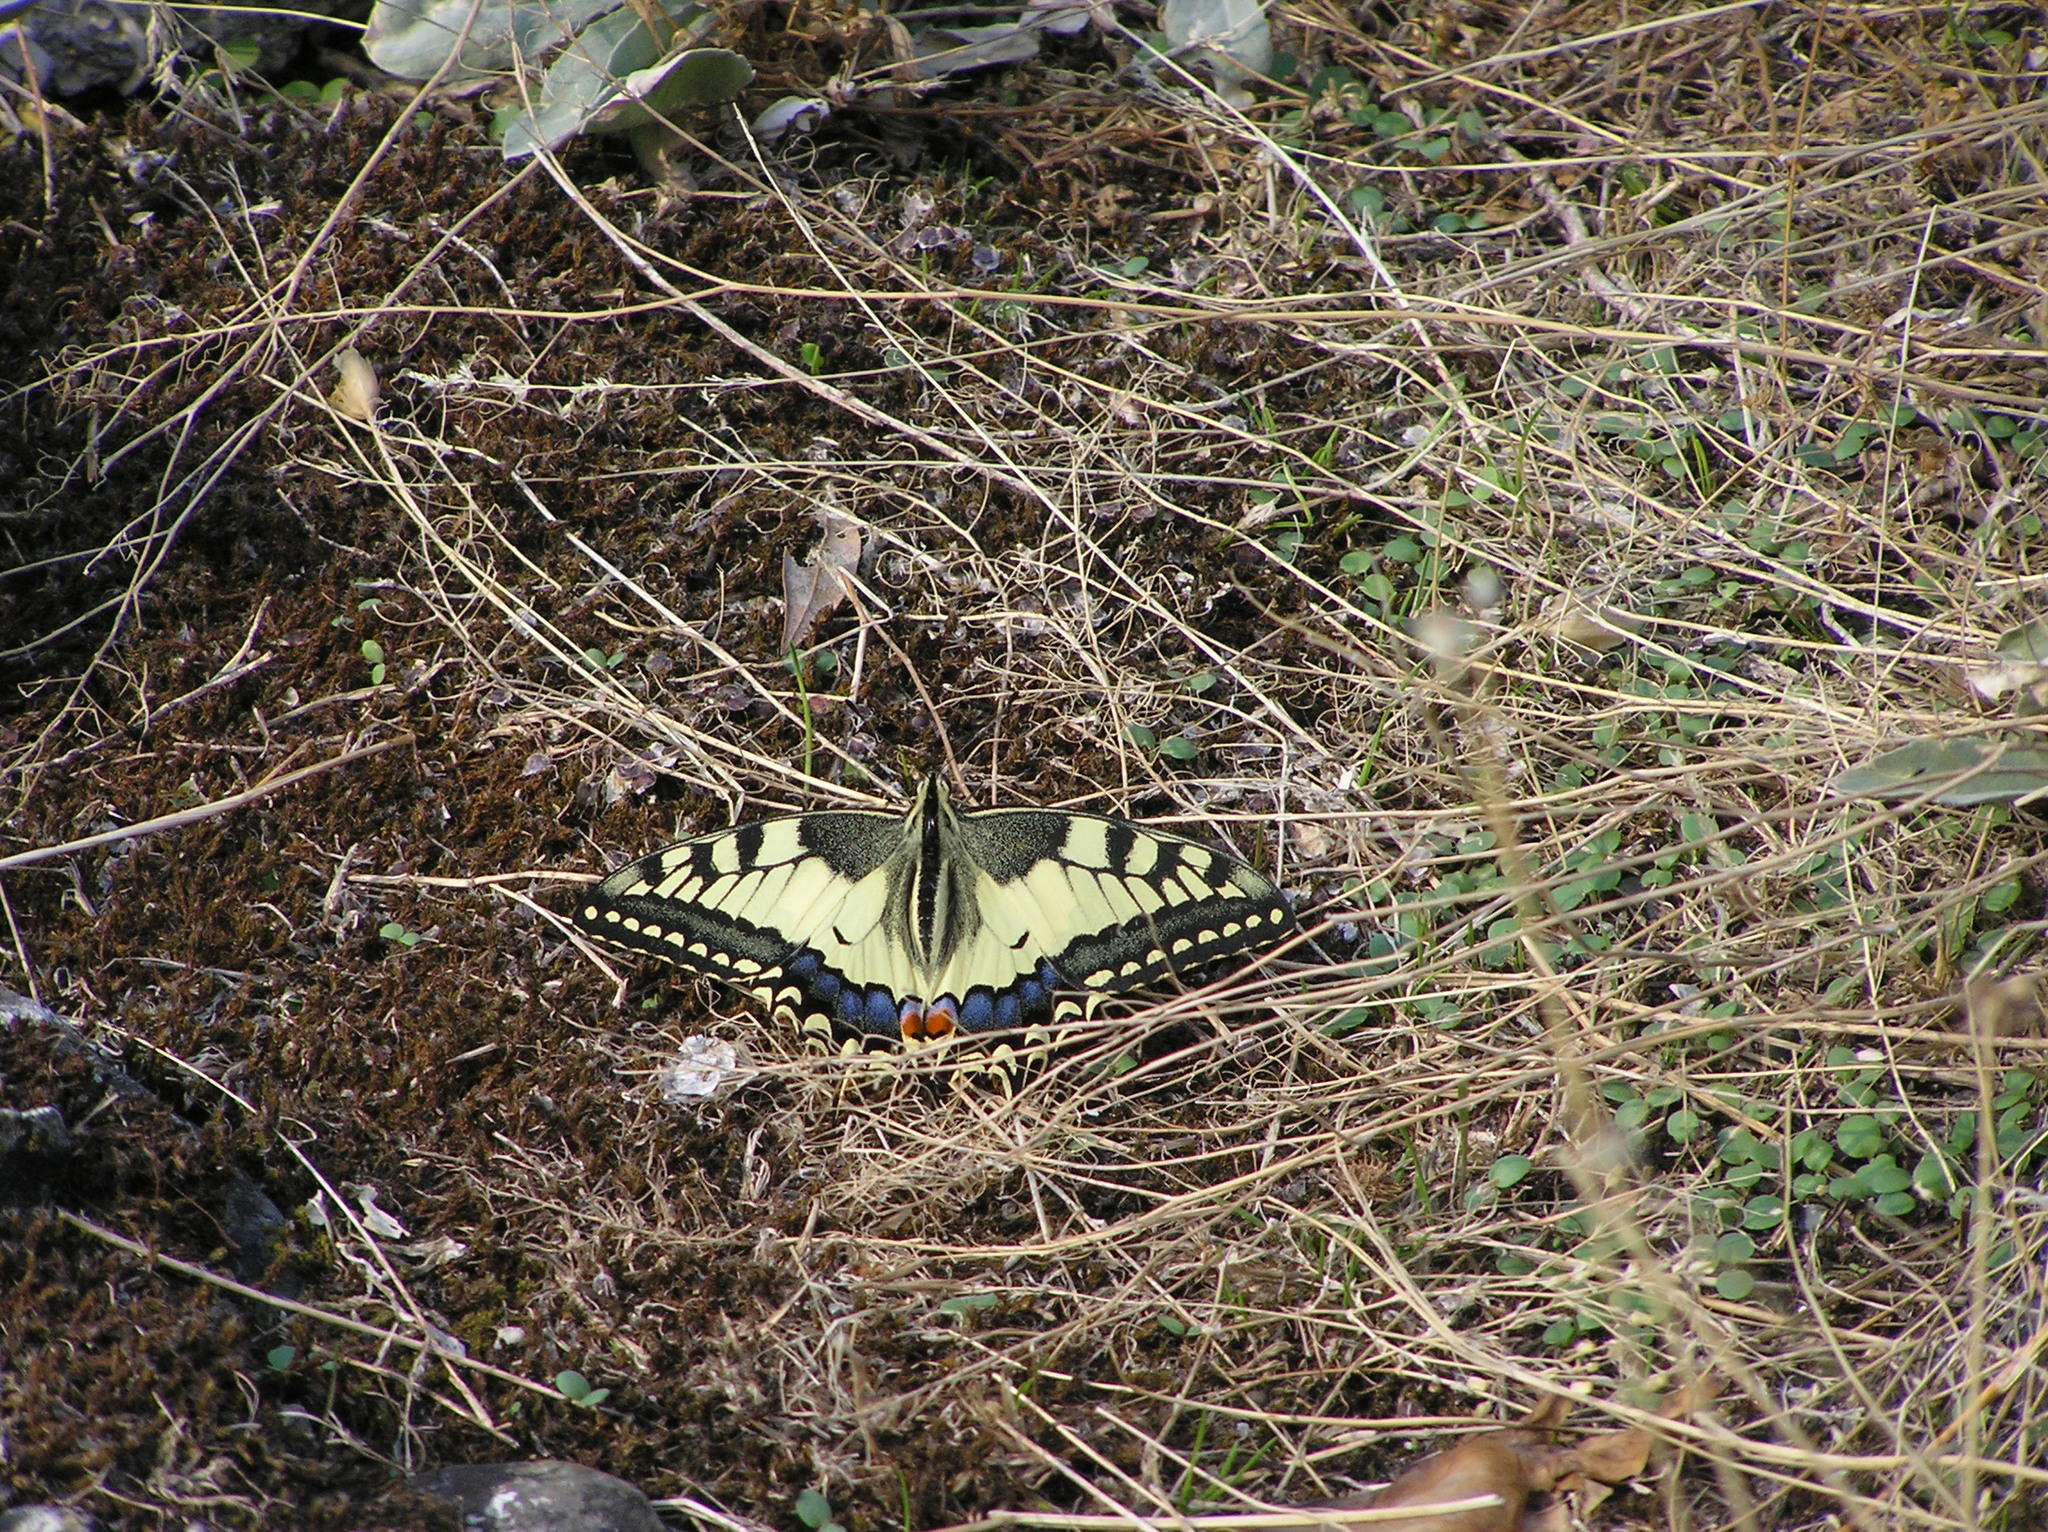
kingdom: Animalia
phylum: Arthropoda
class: Insecta
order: Lepidoptera
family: Papilionidae
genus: Papilio
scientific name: Papilio machaon
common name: Swallowtail
